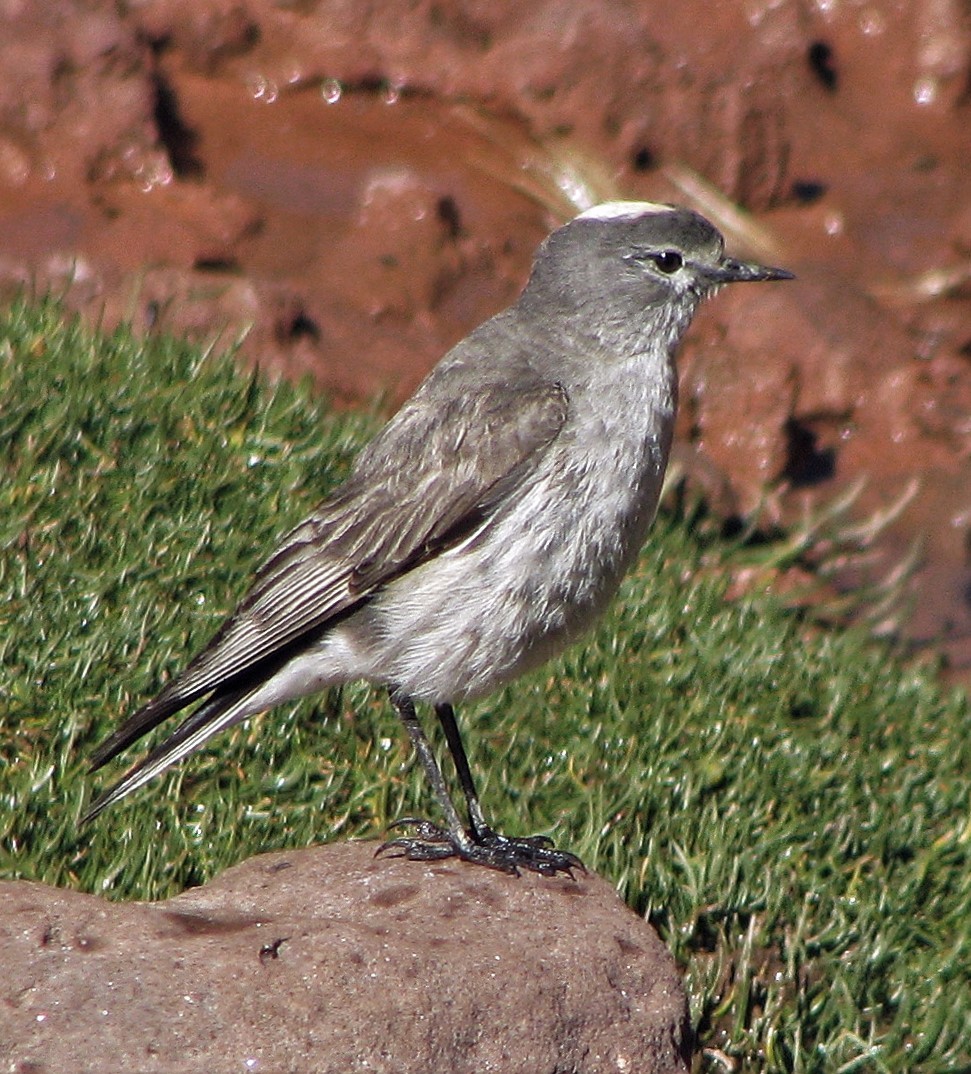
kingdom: Animalia
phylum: Chordata
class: Aves
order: Passeriformes
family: Tyrannidae
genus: Muscisaxicola
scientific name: Muscisaxicola flavinucha
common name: Ochre-naped ground tyrant
